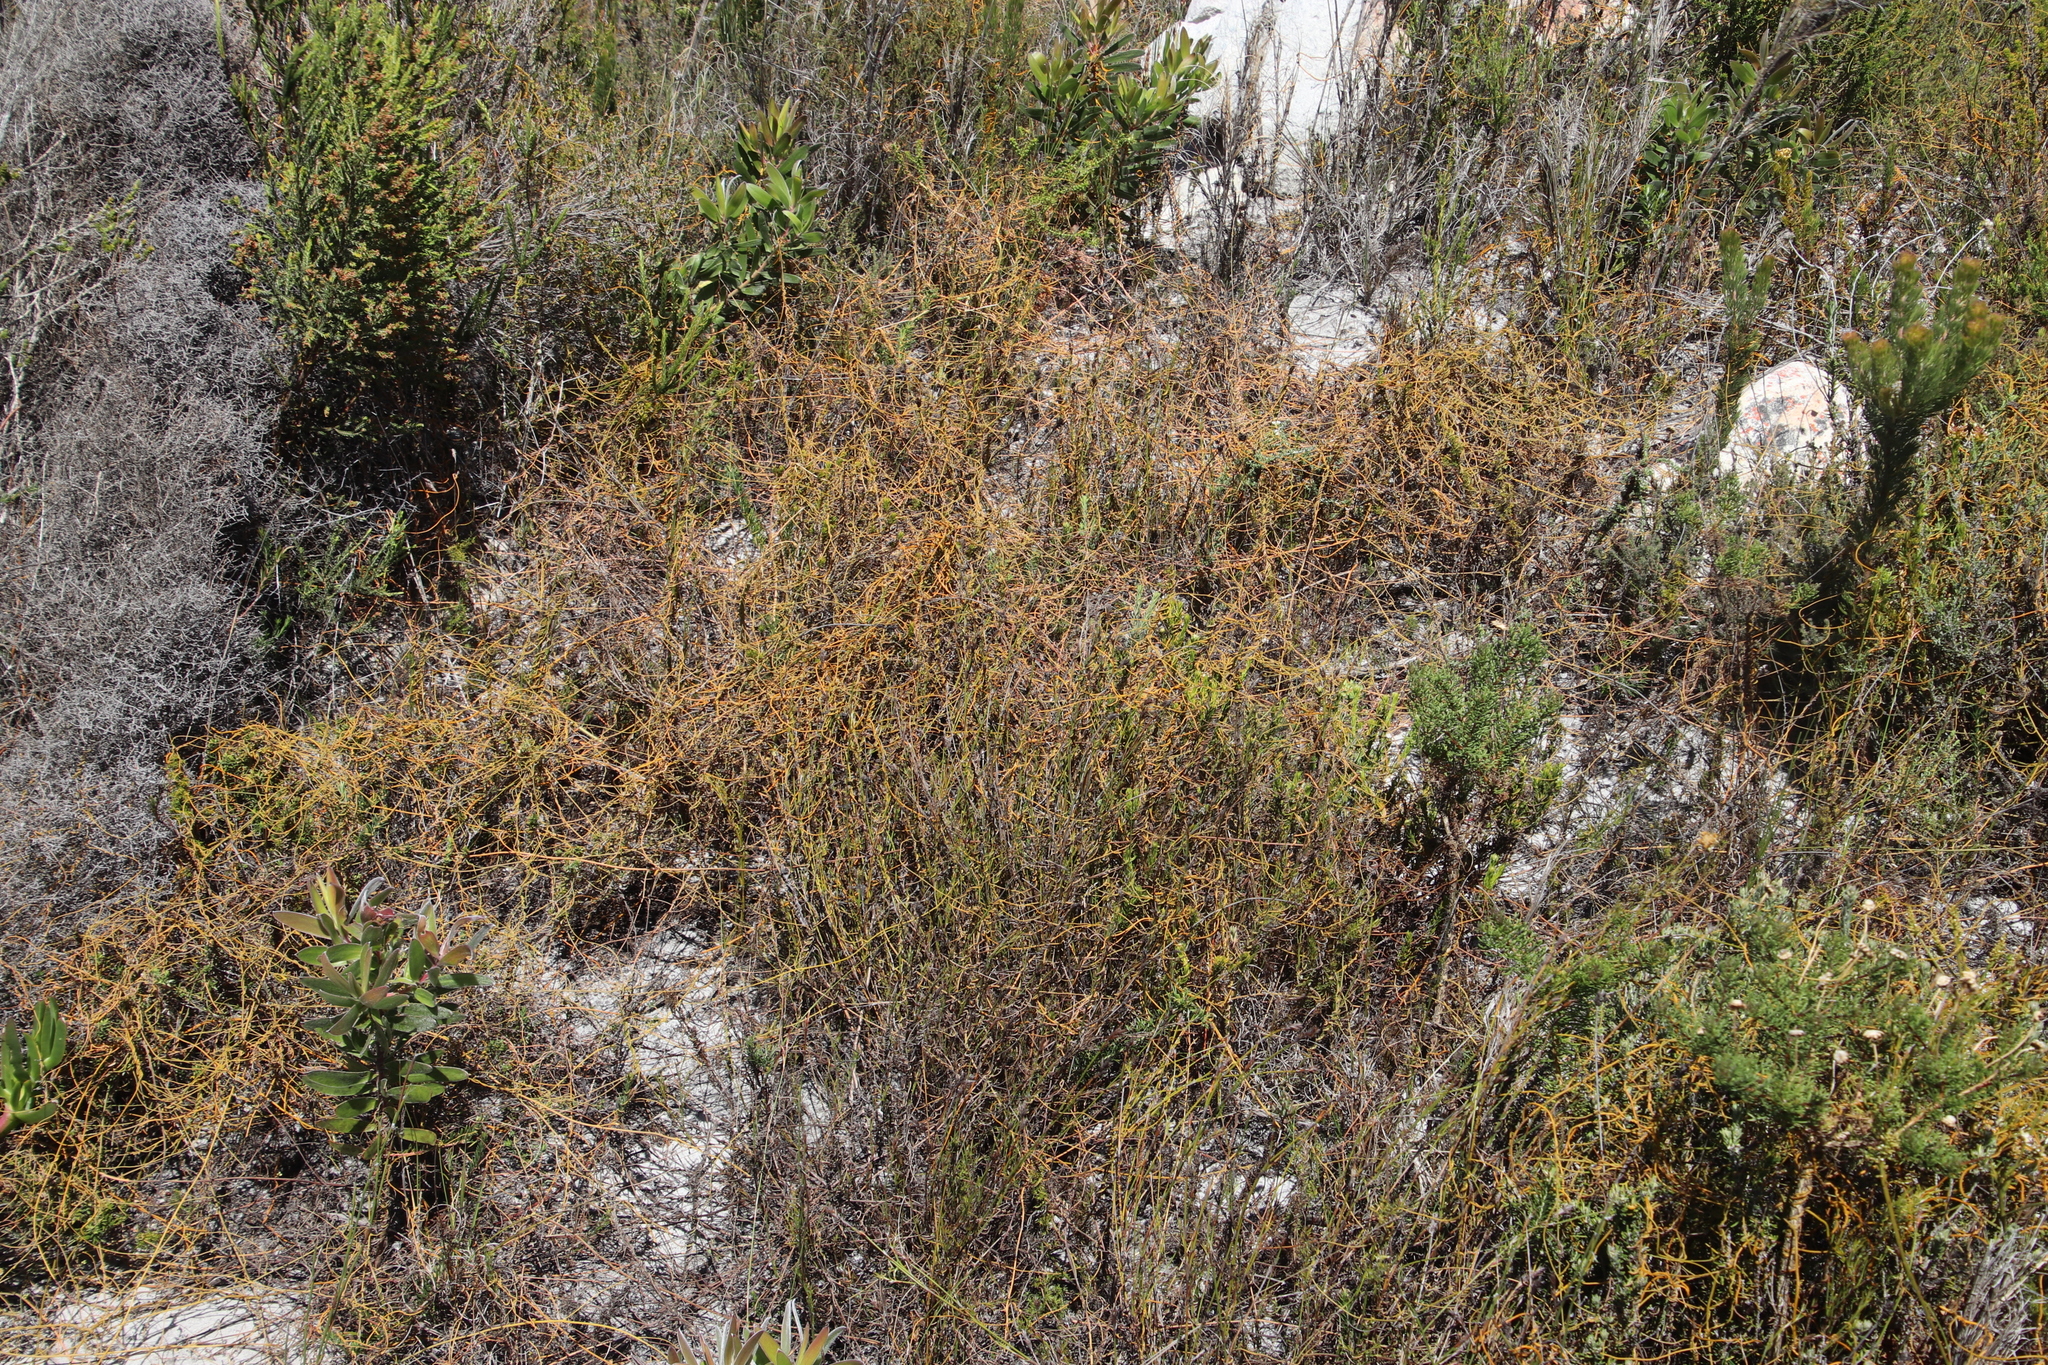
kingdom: Plantae
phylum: Tracheophyta
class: Magnoliopsida
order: Laurales
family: Lauraceae
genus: Cassytha
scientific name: Cassytha ciliolata
